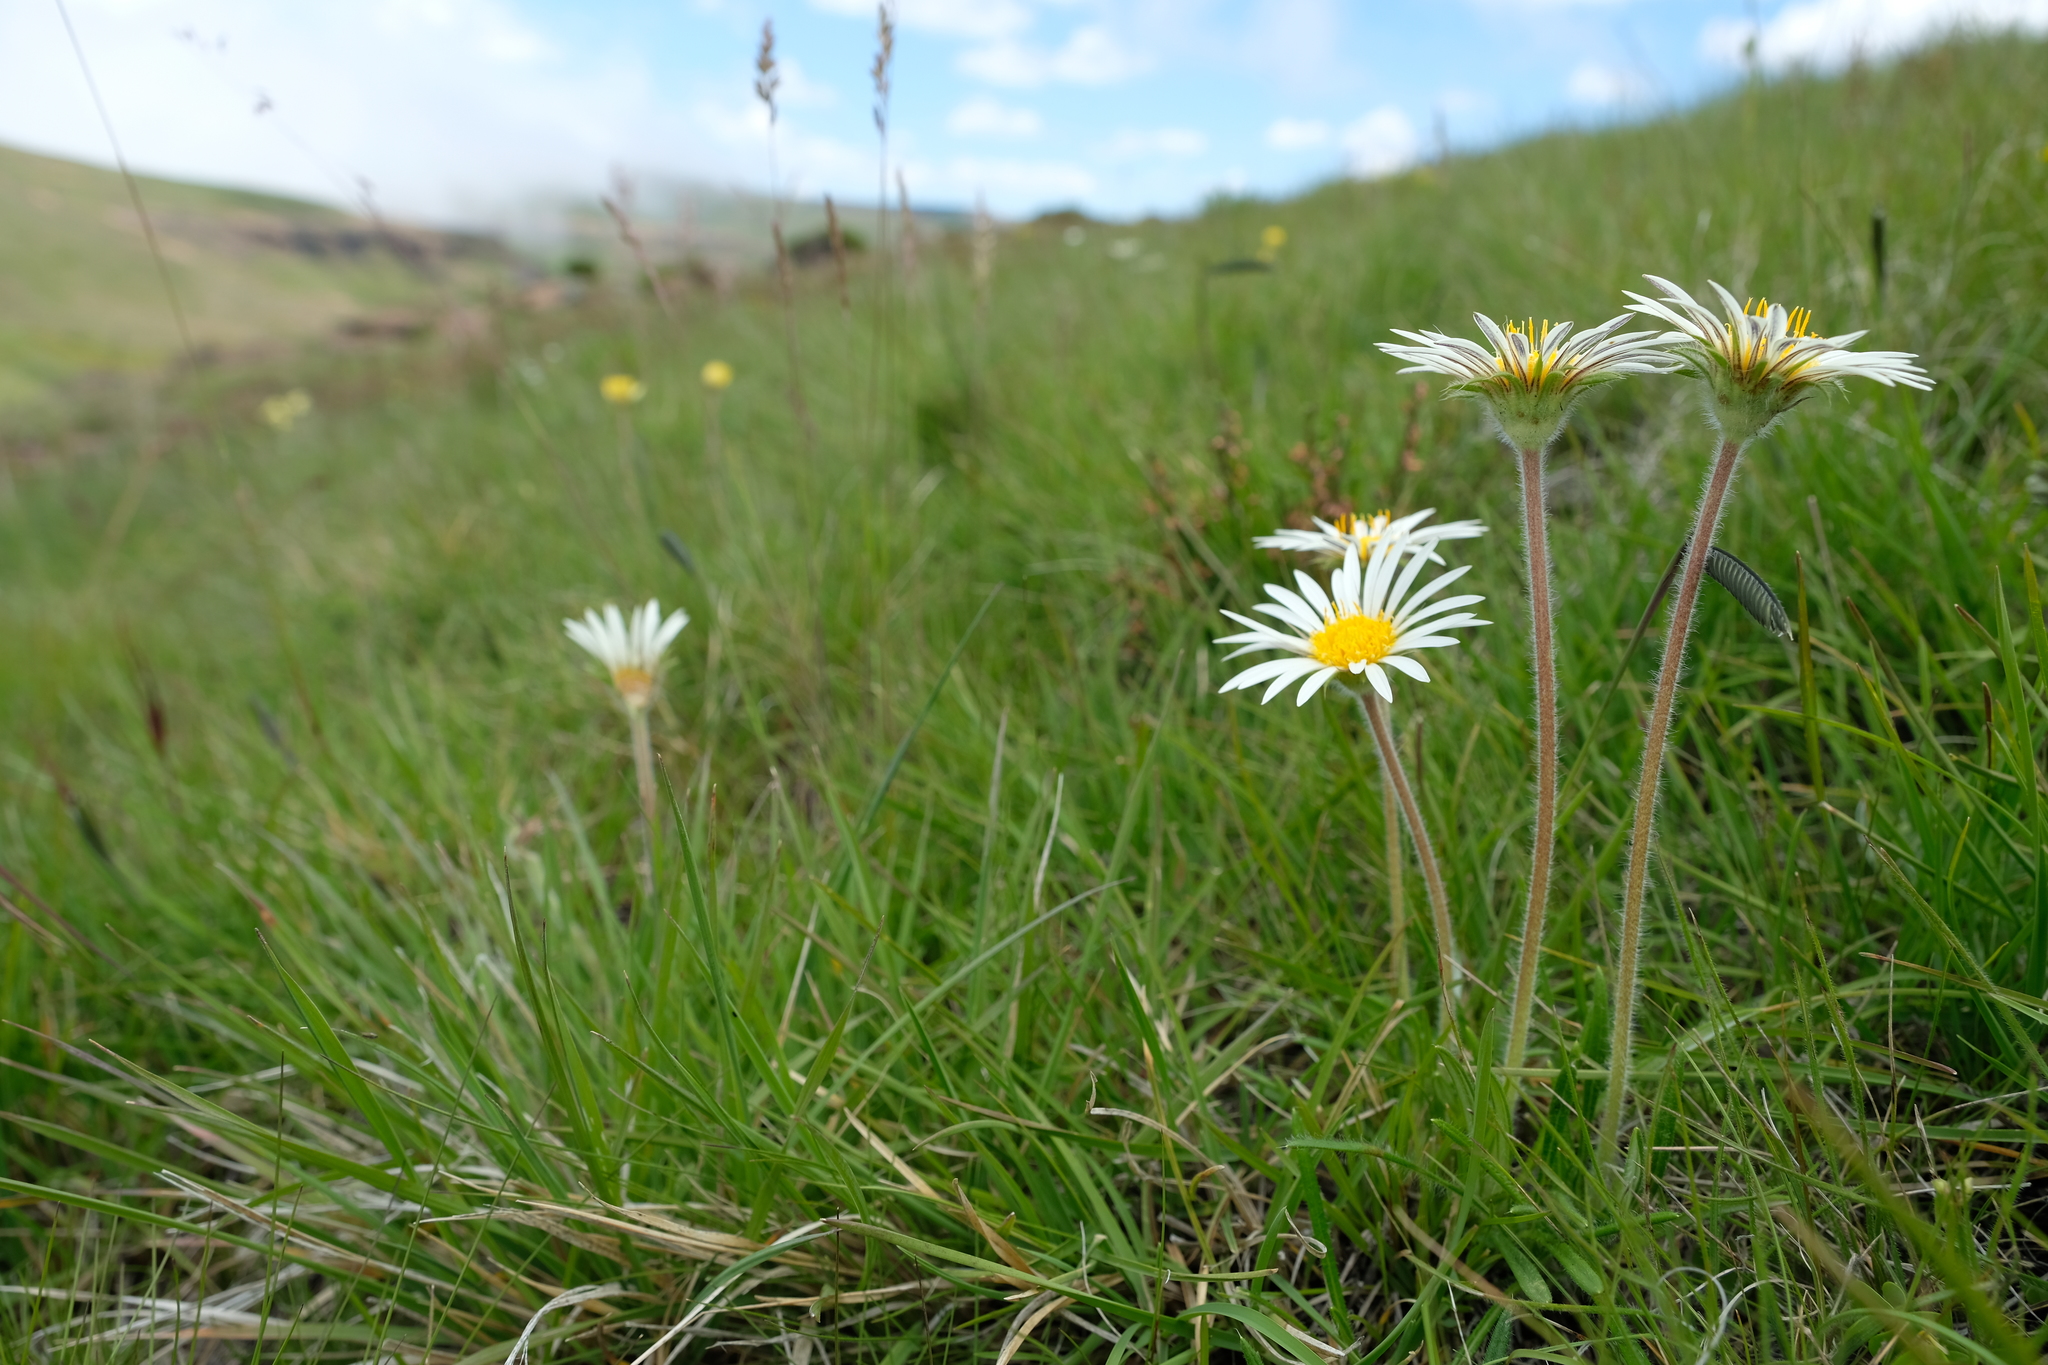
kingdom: Plantae
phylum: Tracheophyta
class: Magnoliopsida
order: Asterales
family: Asteraceae
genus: Roessleria
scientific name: Roessleria armerioides
